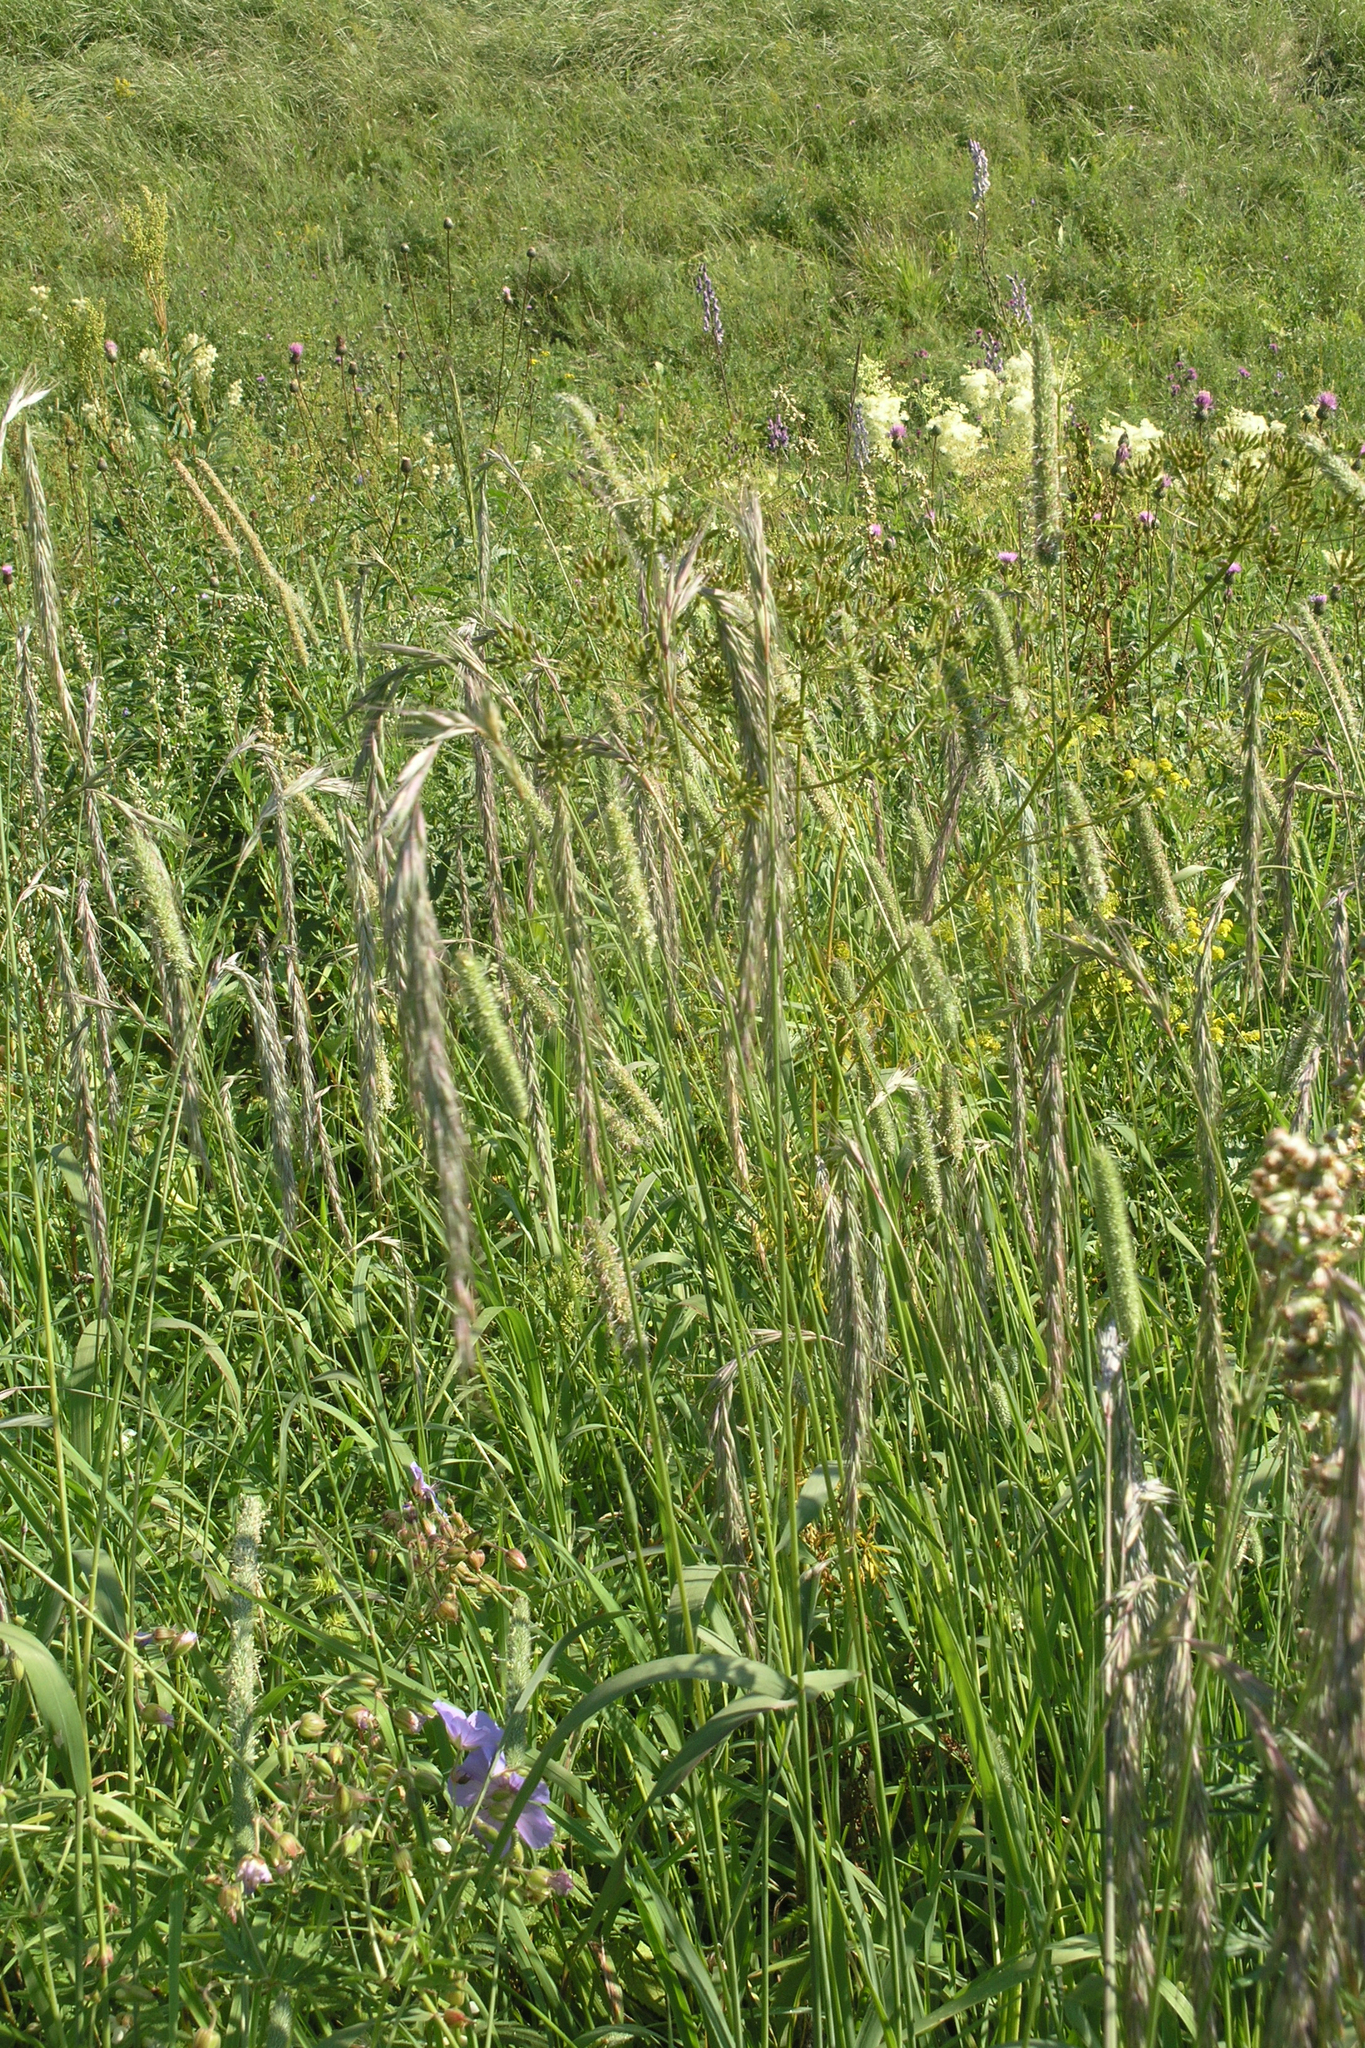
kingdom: Plantae
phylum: Tracheophyta
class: Liliopsida
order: Poales
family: Poaceae
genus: Elymus
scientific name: Elymus sibiricus
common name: Siberian wildrye
